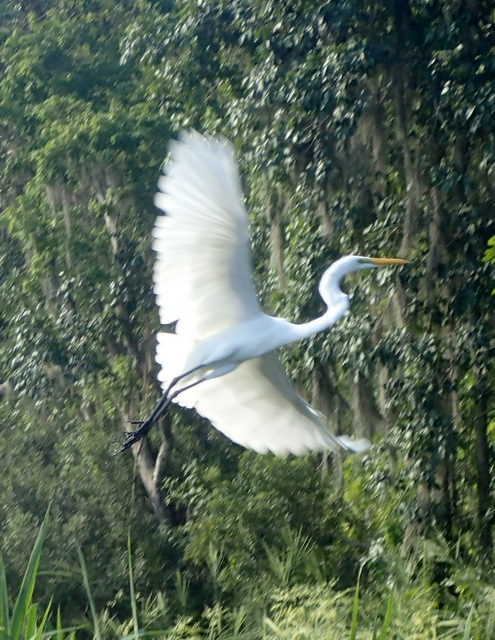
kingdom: Animalia
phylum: Chordata
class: Aves
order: Pelecaniformes
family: Ardeidae
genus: Ardea
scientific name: Ardea alba
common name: Great egret
